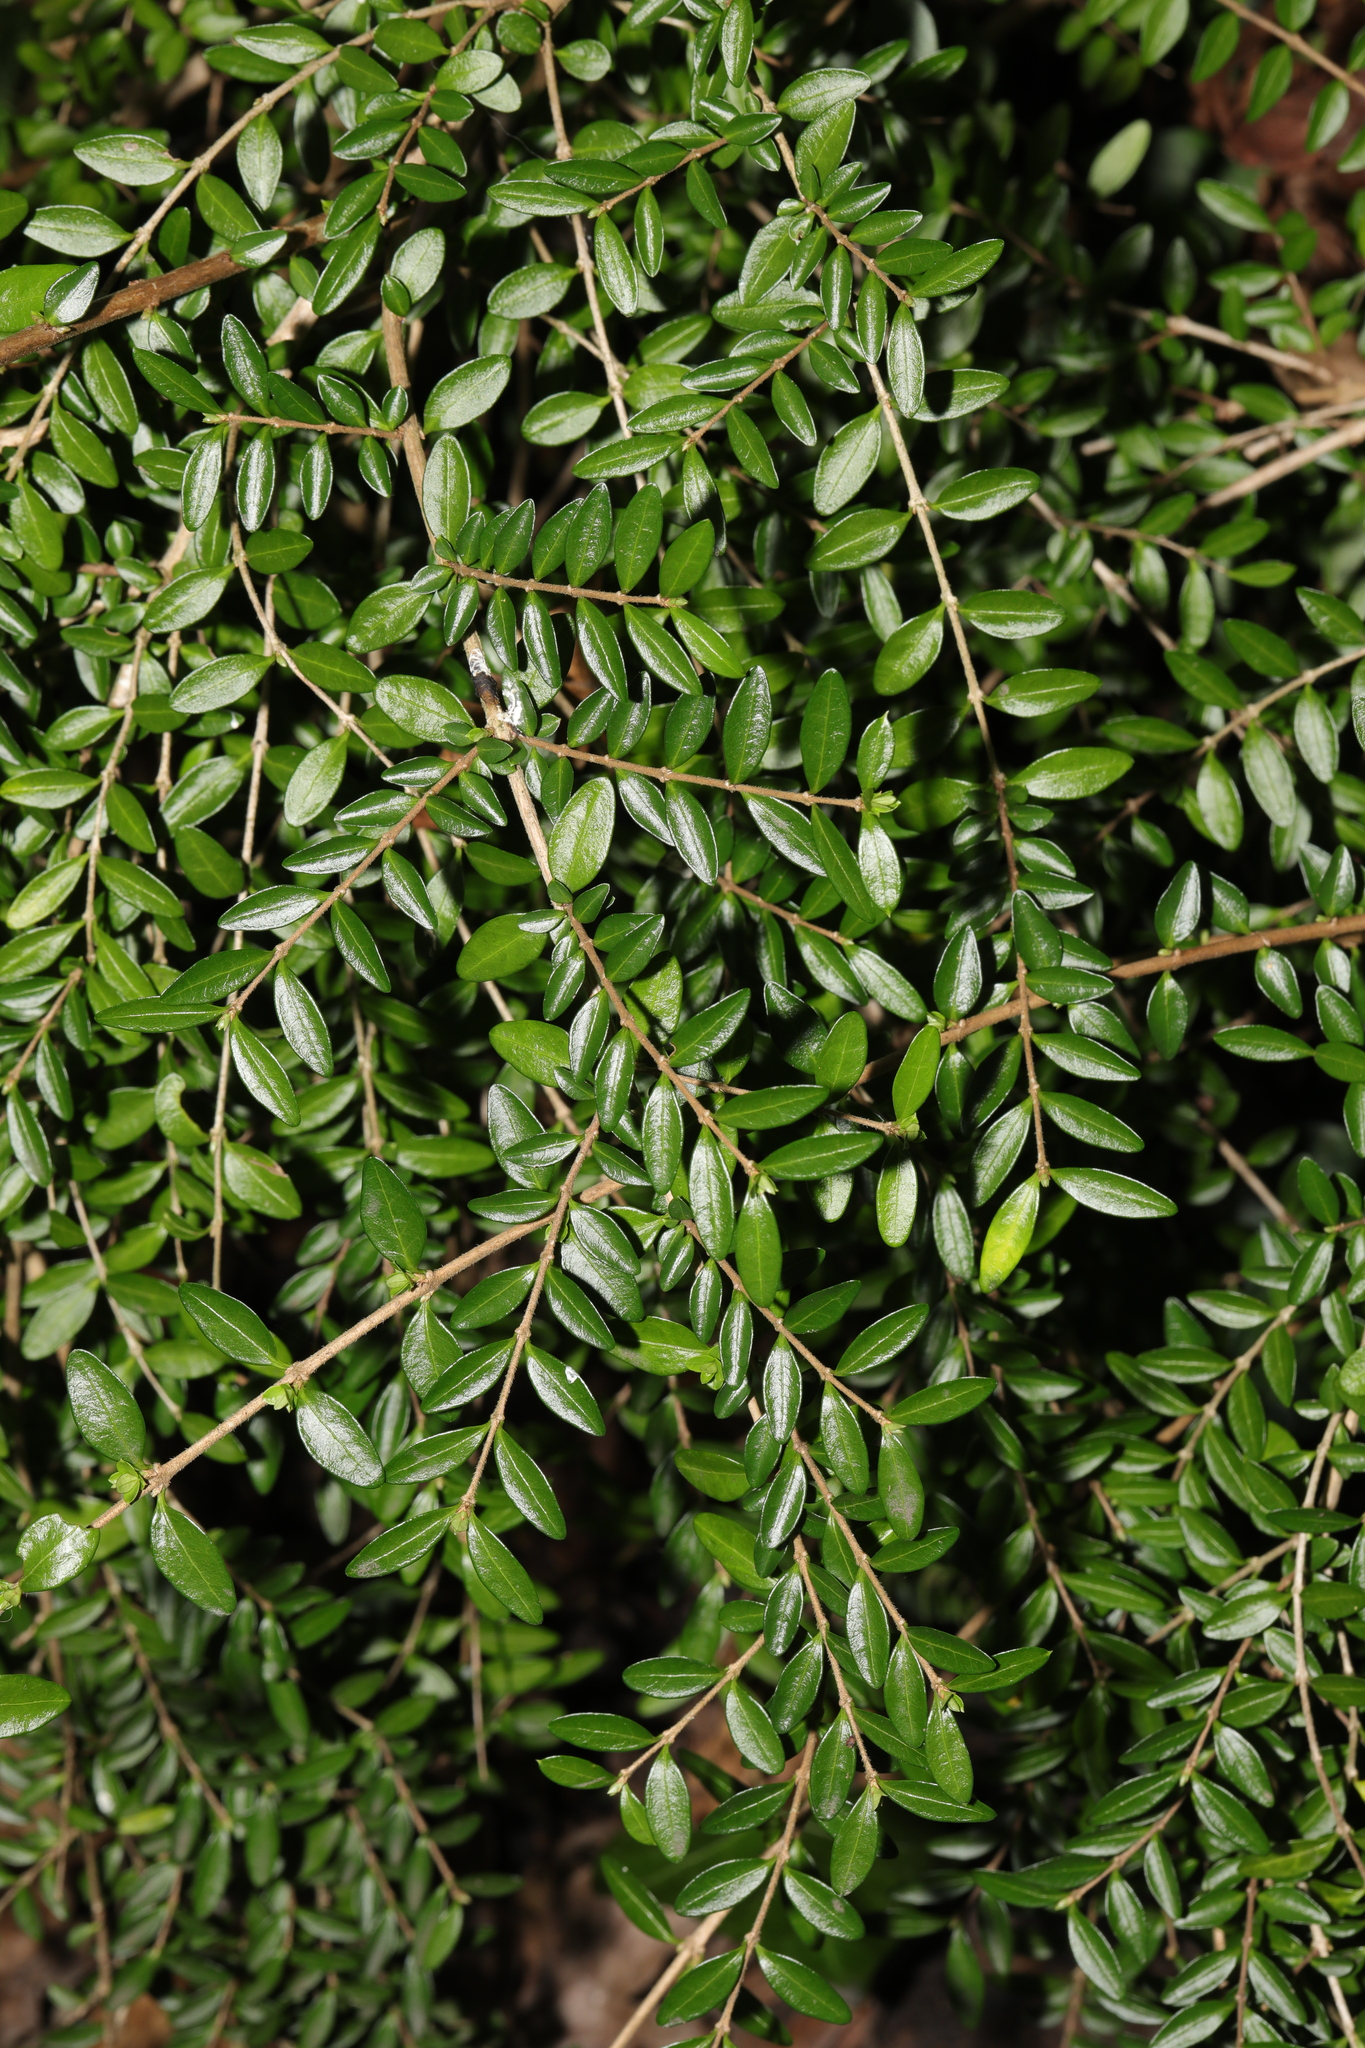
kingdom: Plantae
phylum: Tracheophyta
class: Magnoliopsida
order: Dipsacales
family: Caprifoliaceae
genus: Lonicera
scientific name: Lonicera ligustrina
